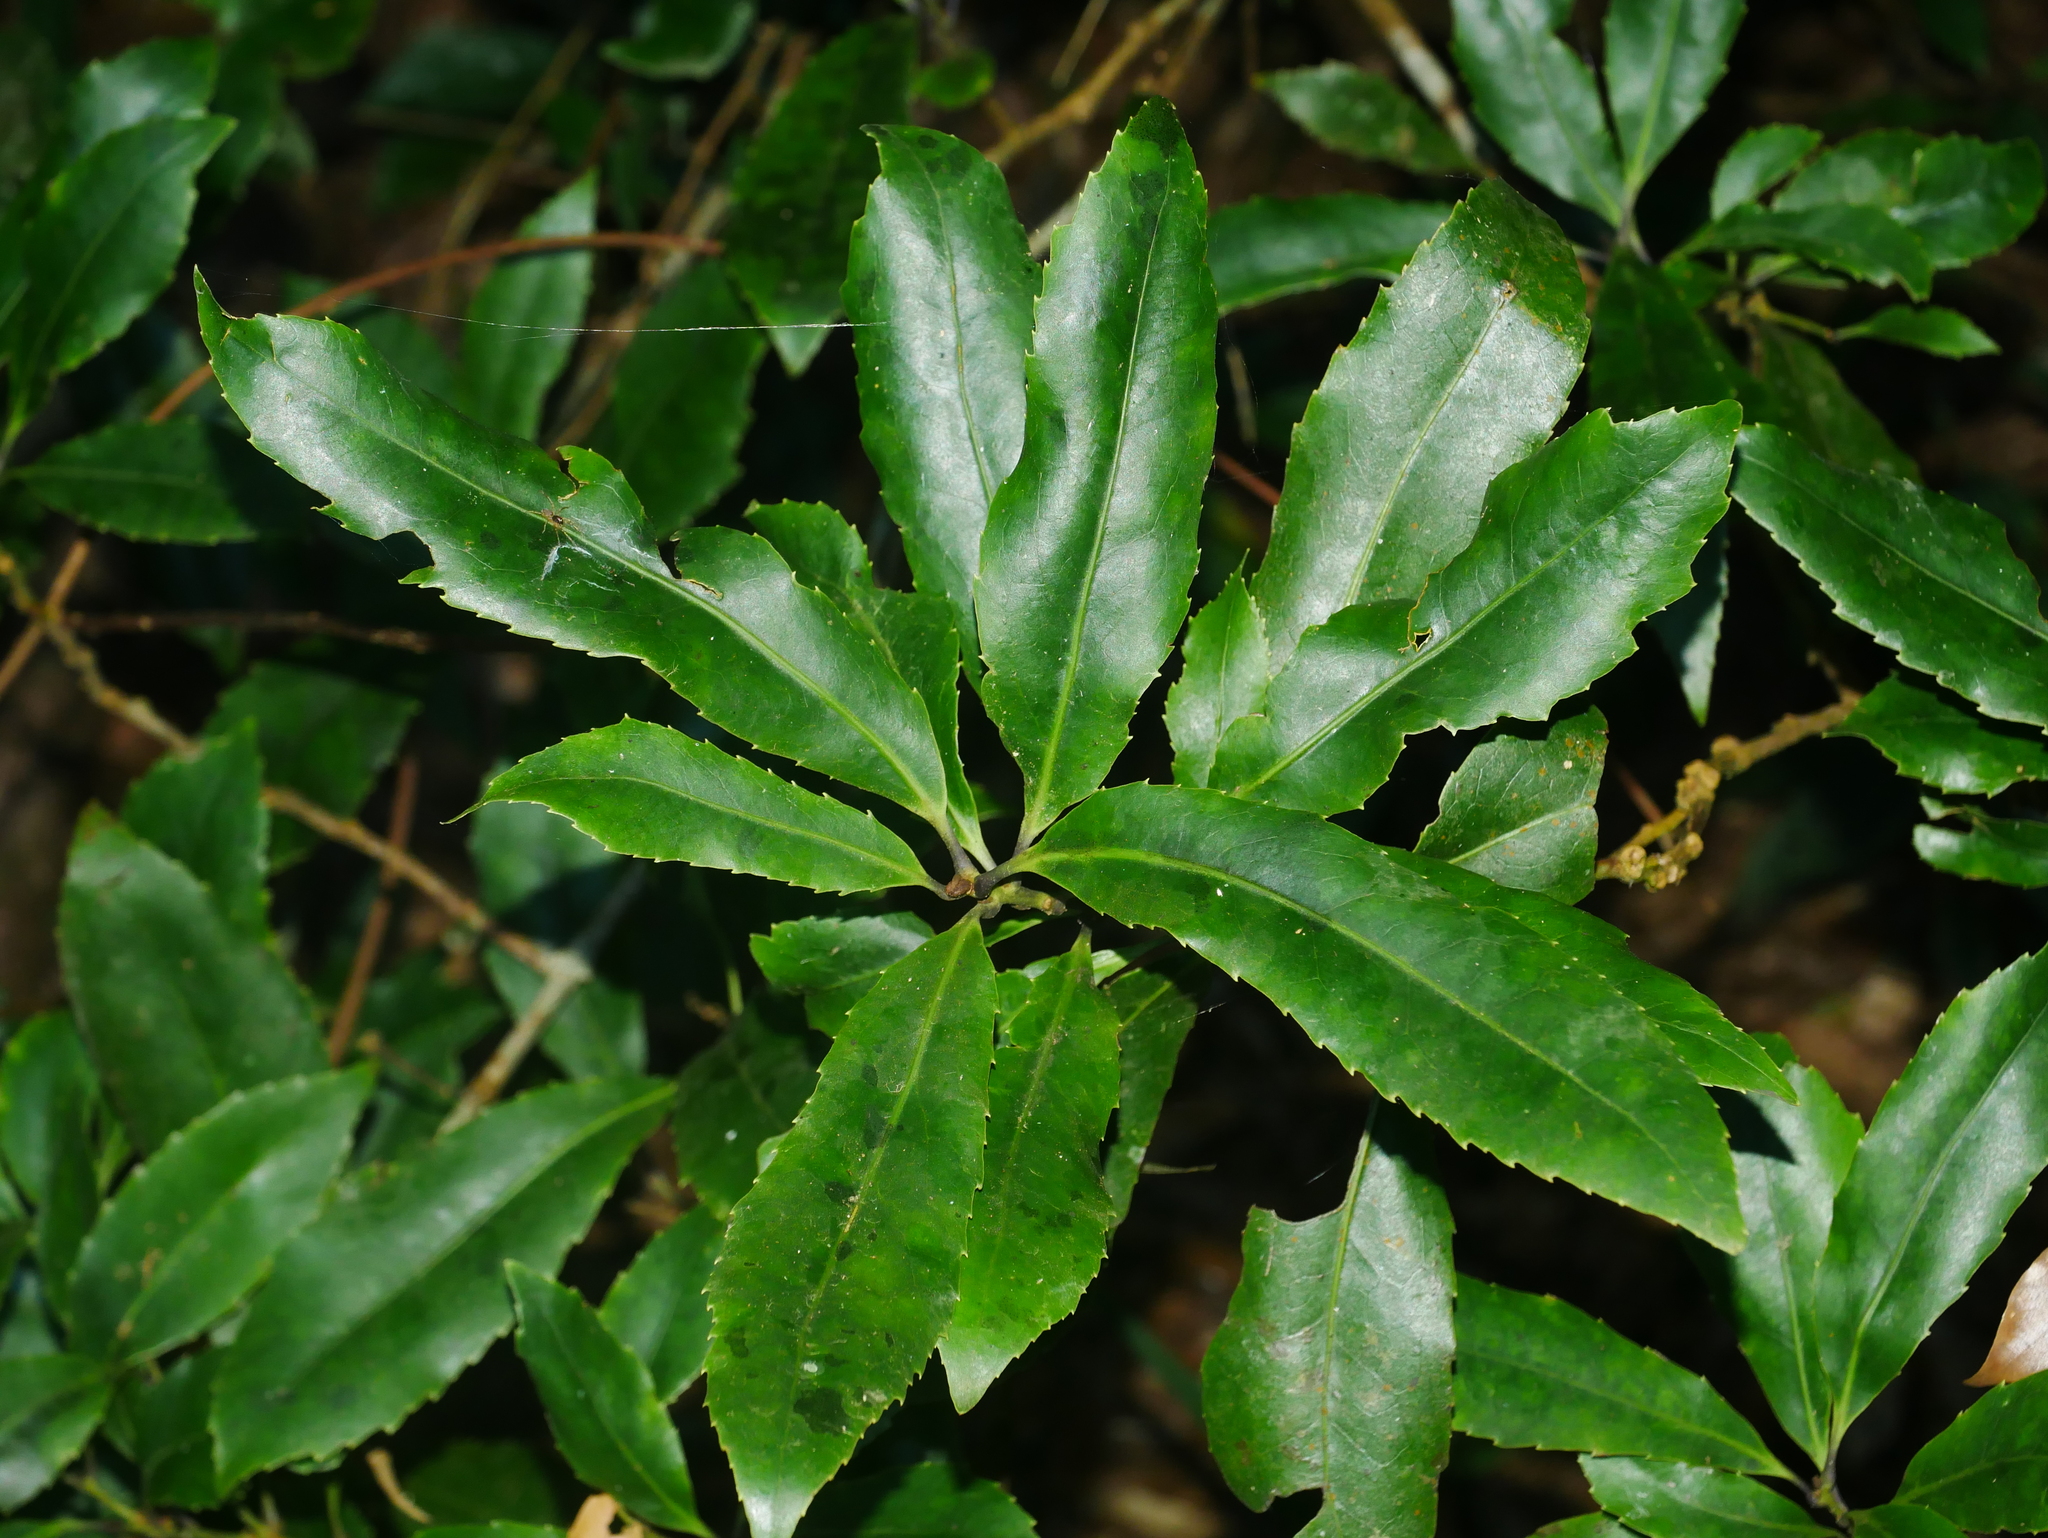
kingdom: Plantae
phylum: Tracheophyta
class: Magnoliopsida
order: Proteales
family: Proteaceae
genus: Helicia
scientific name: Helicia rengetiensis
